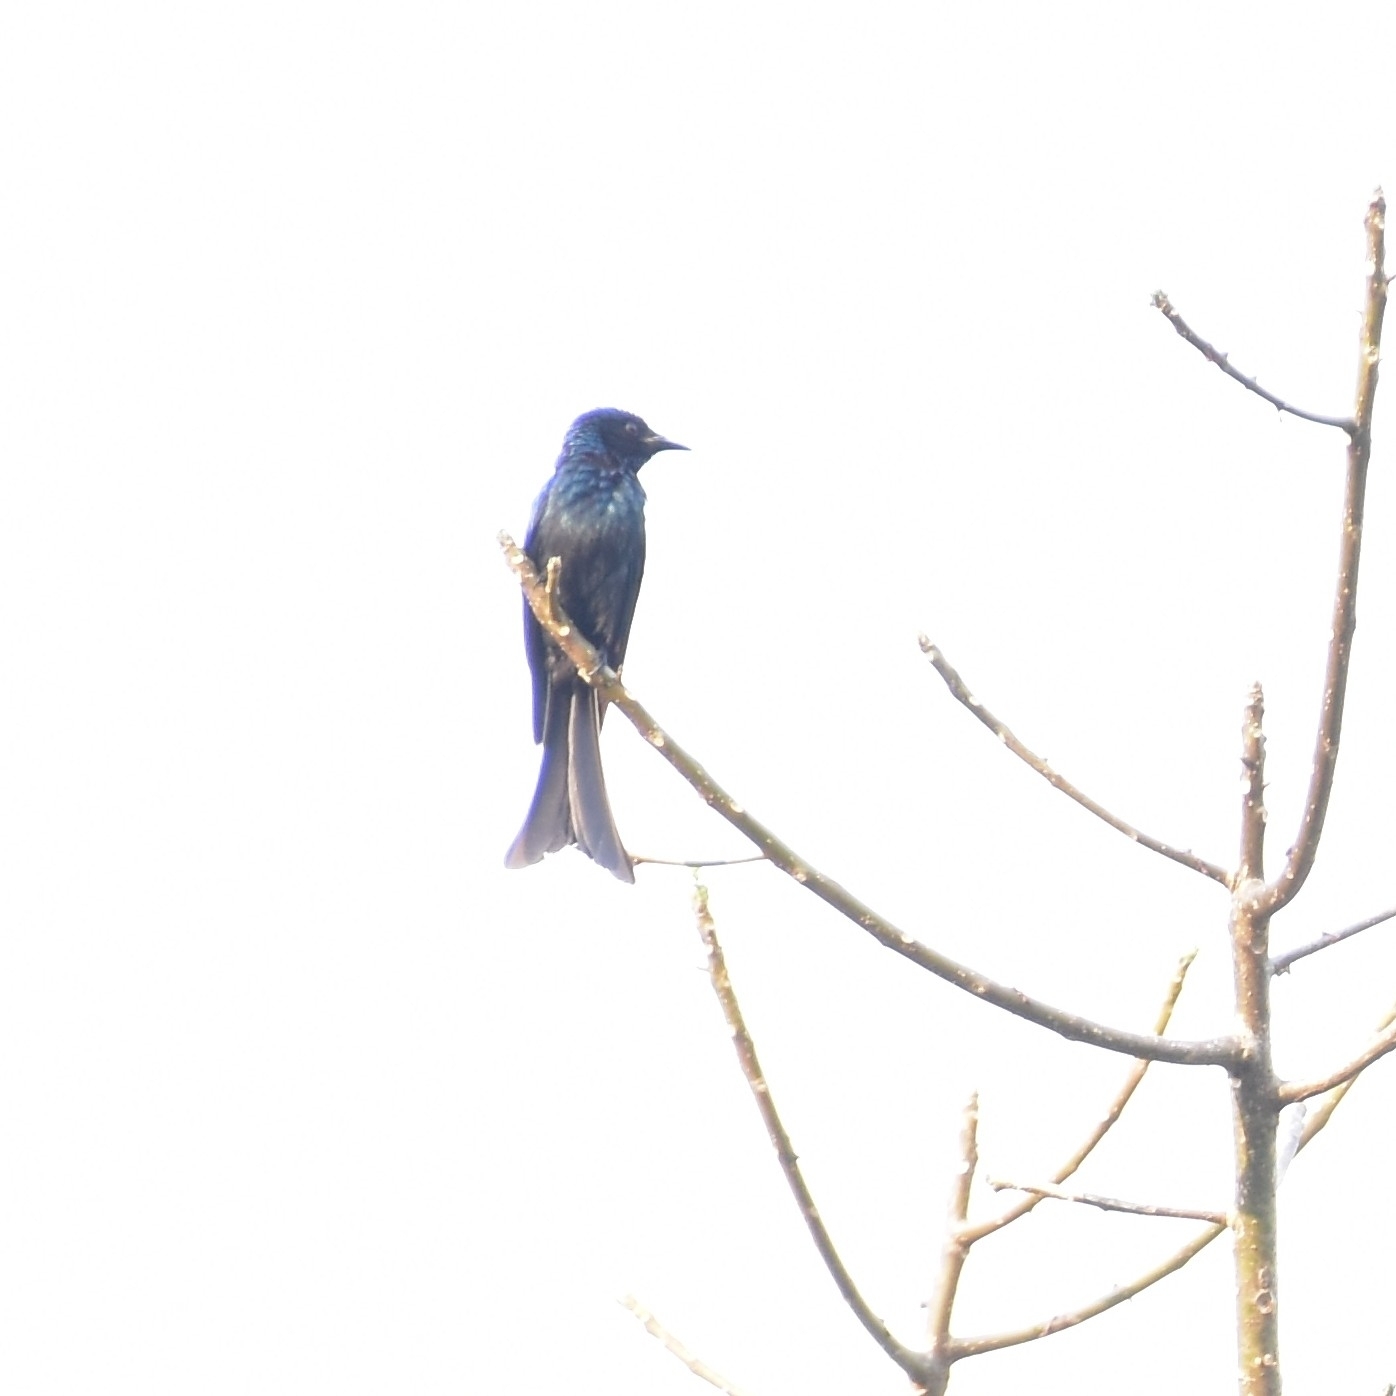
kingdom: Animalia
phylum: Chordata
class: Aves
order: Passeriformes
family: Dicruridae
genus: Dicrurus
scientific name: Dicrurus aeneus
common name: Bronzed drongo
